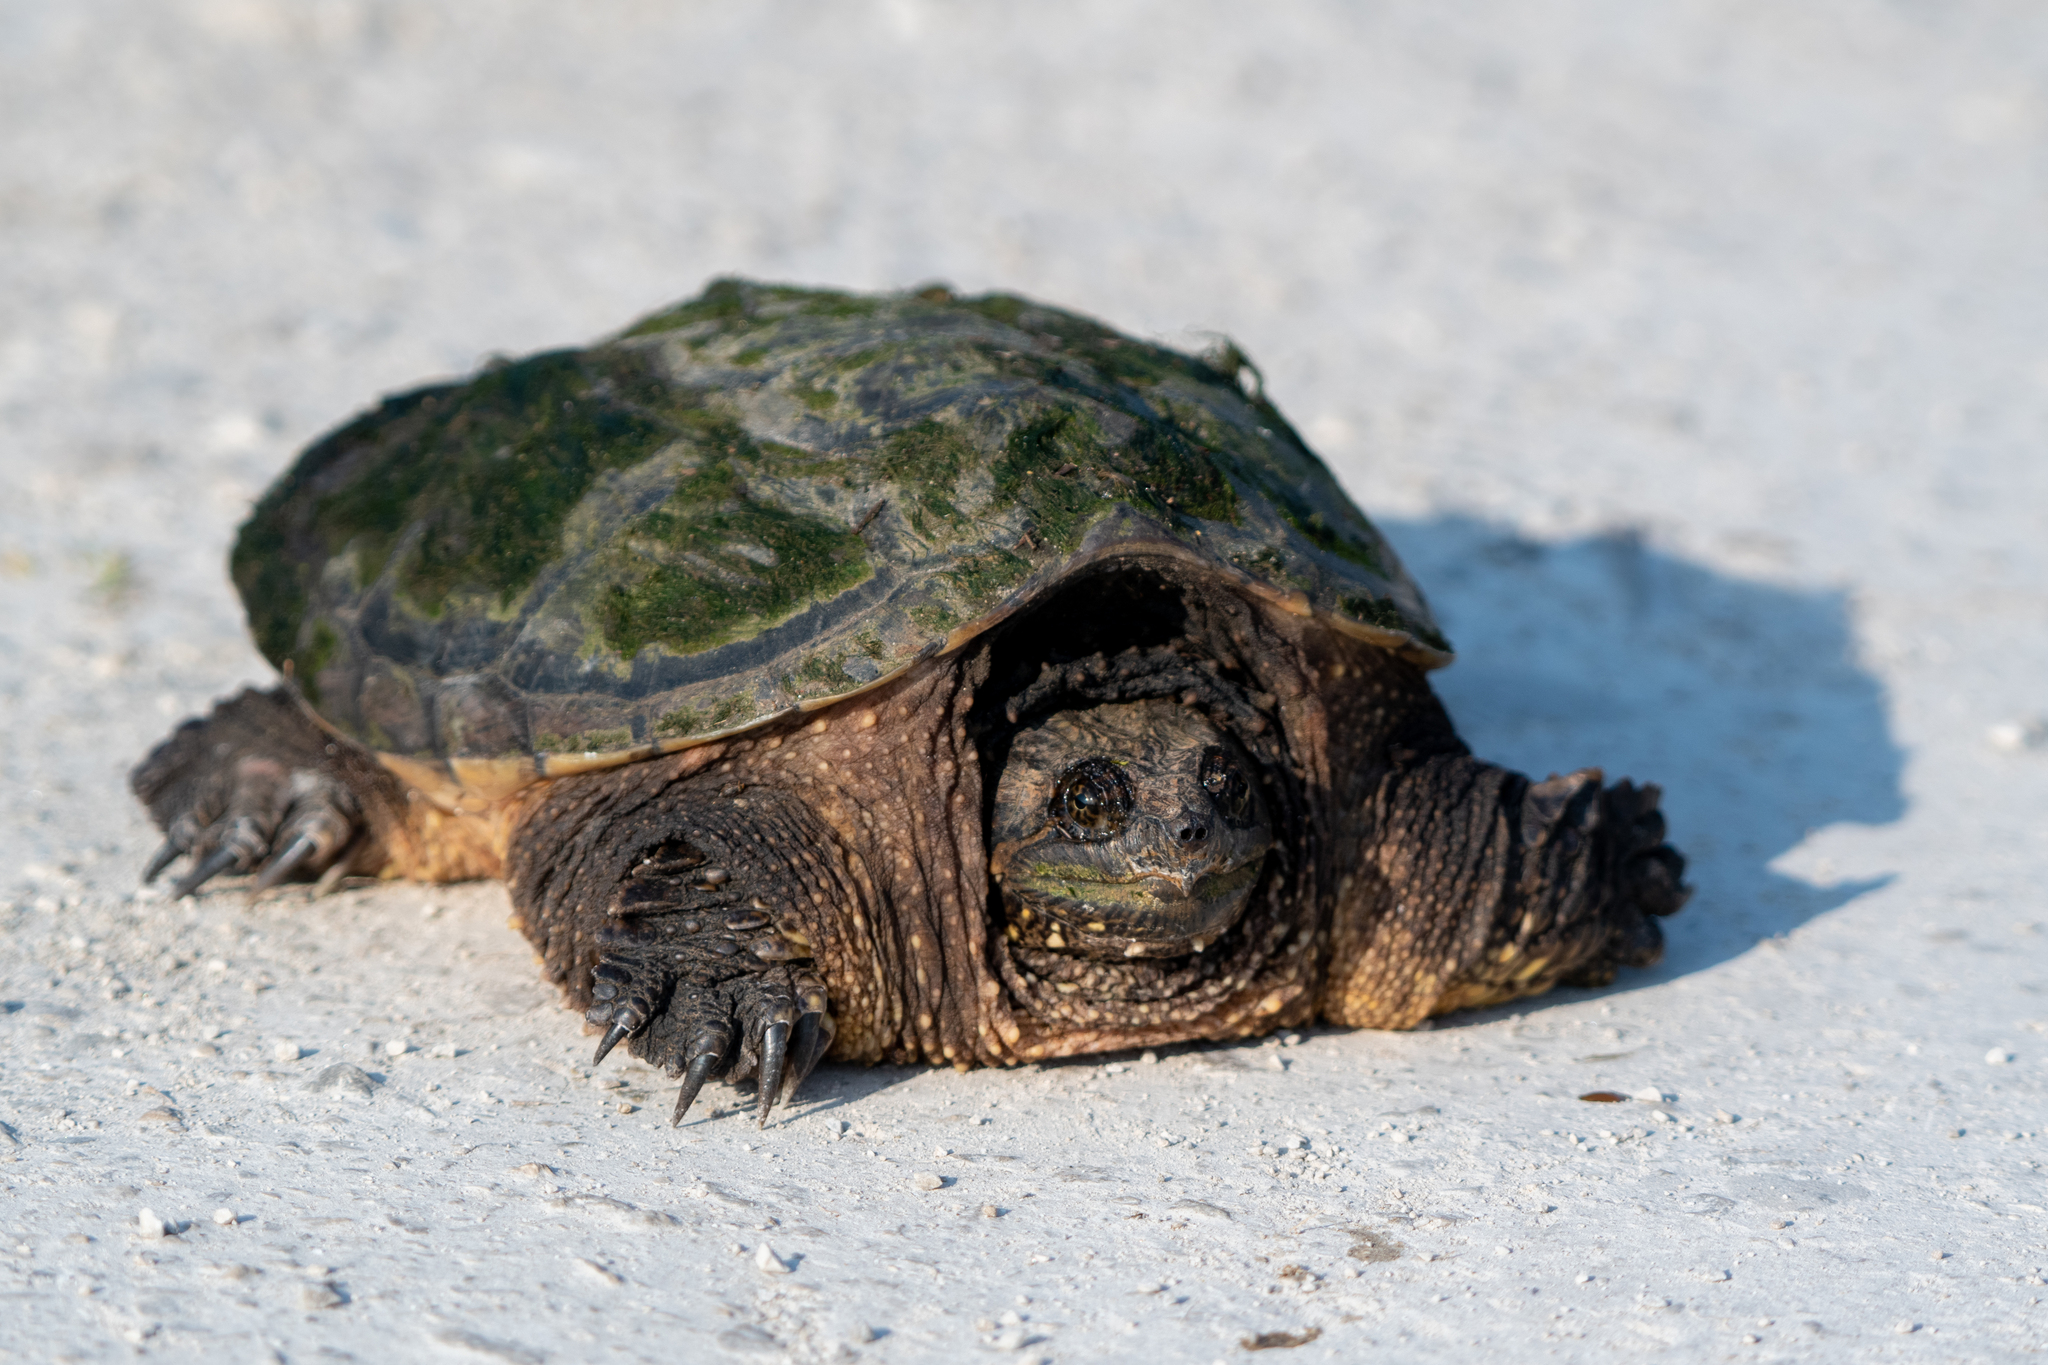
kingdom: Animalia
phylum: Chordata
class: Testudines
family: Chelydridae
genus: Chelydra
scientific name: Chelydra serpentina
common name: Common snapping turtle
